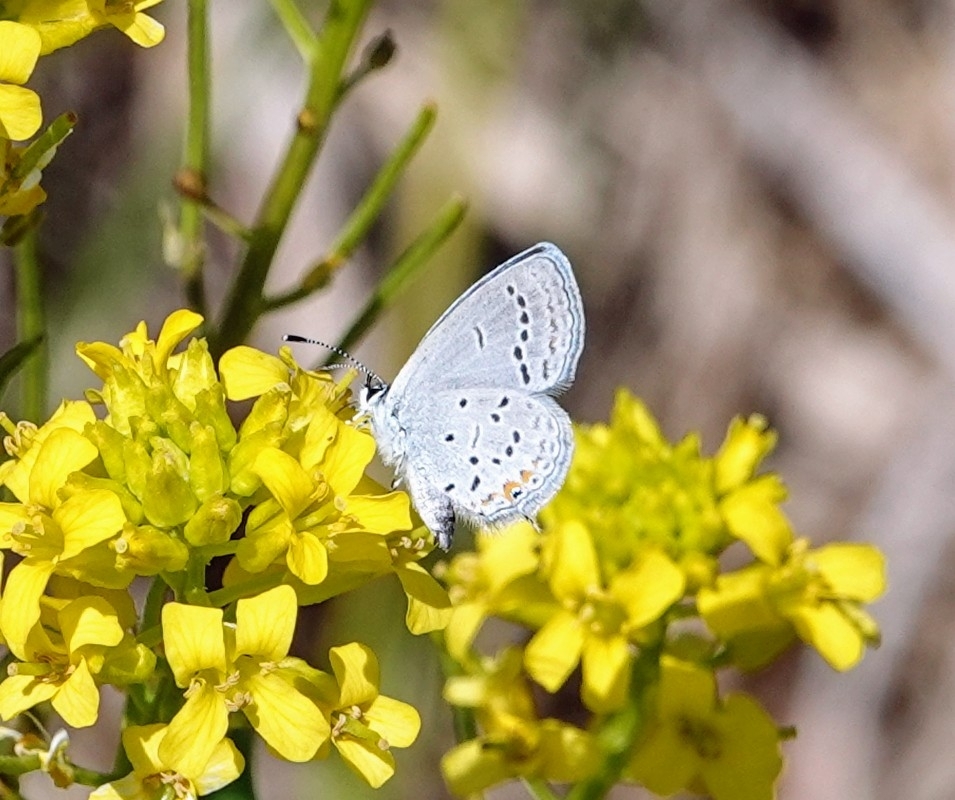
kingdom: Animalia
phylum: Arthropoda
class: Insecta
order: Lepidoptera
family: Lycaenidae
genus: Elkalyce
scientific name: Elkalyce comyntas
